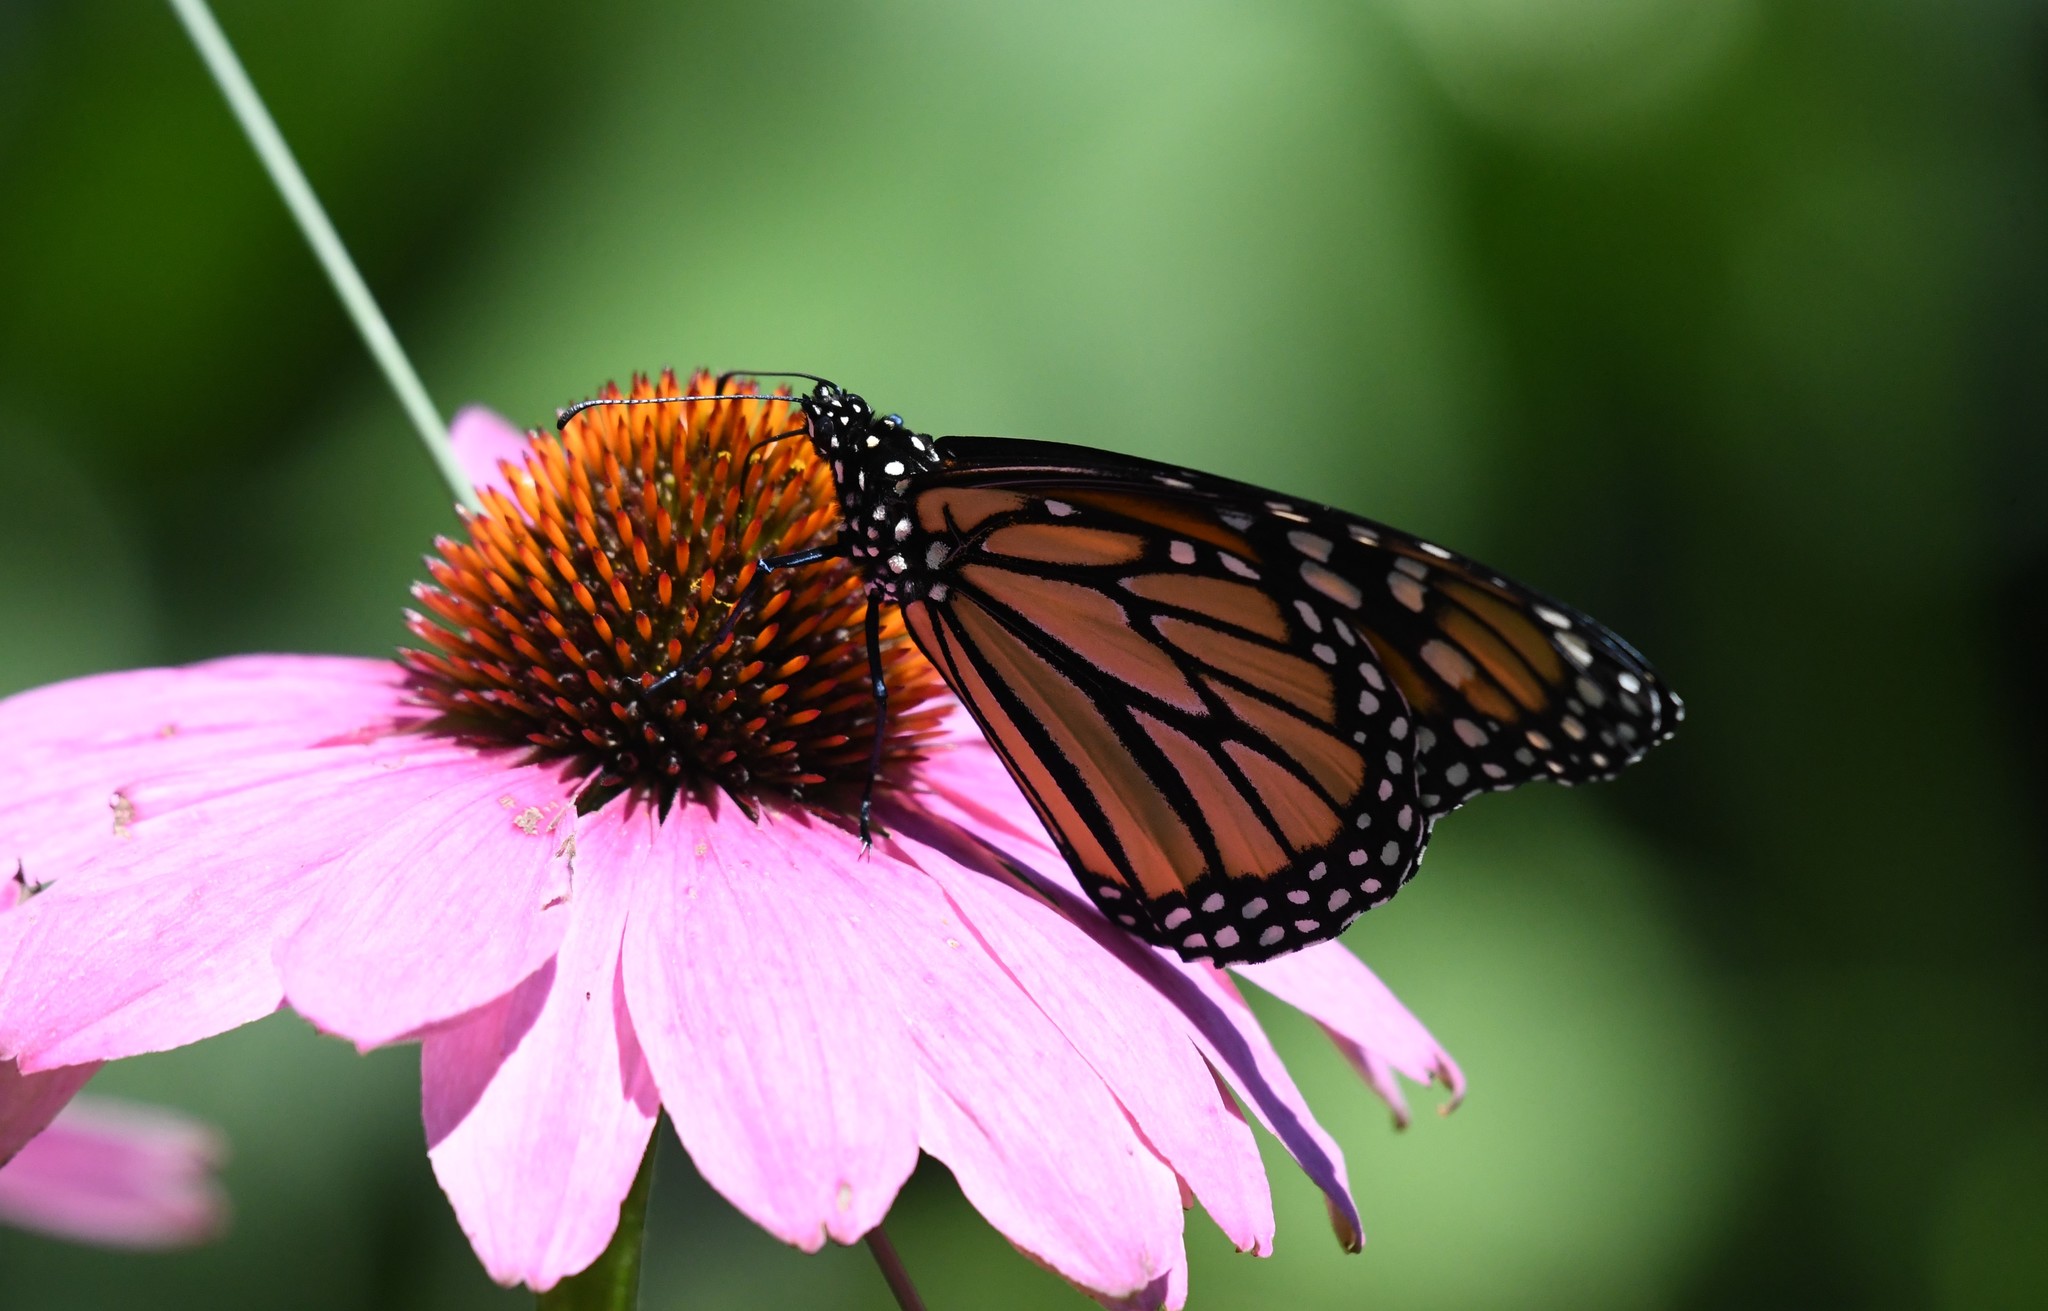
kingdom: Animalia
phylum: Arthropoda
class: Insecta
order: Lepidoptera
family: Nymphalidae
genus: Danaus
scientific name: Danaus plexippus
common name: Monarch
